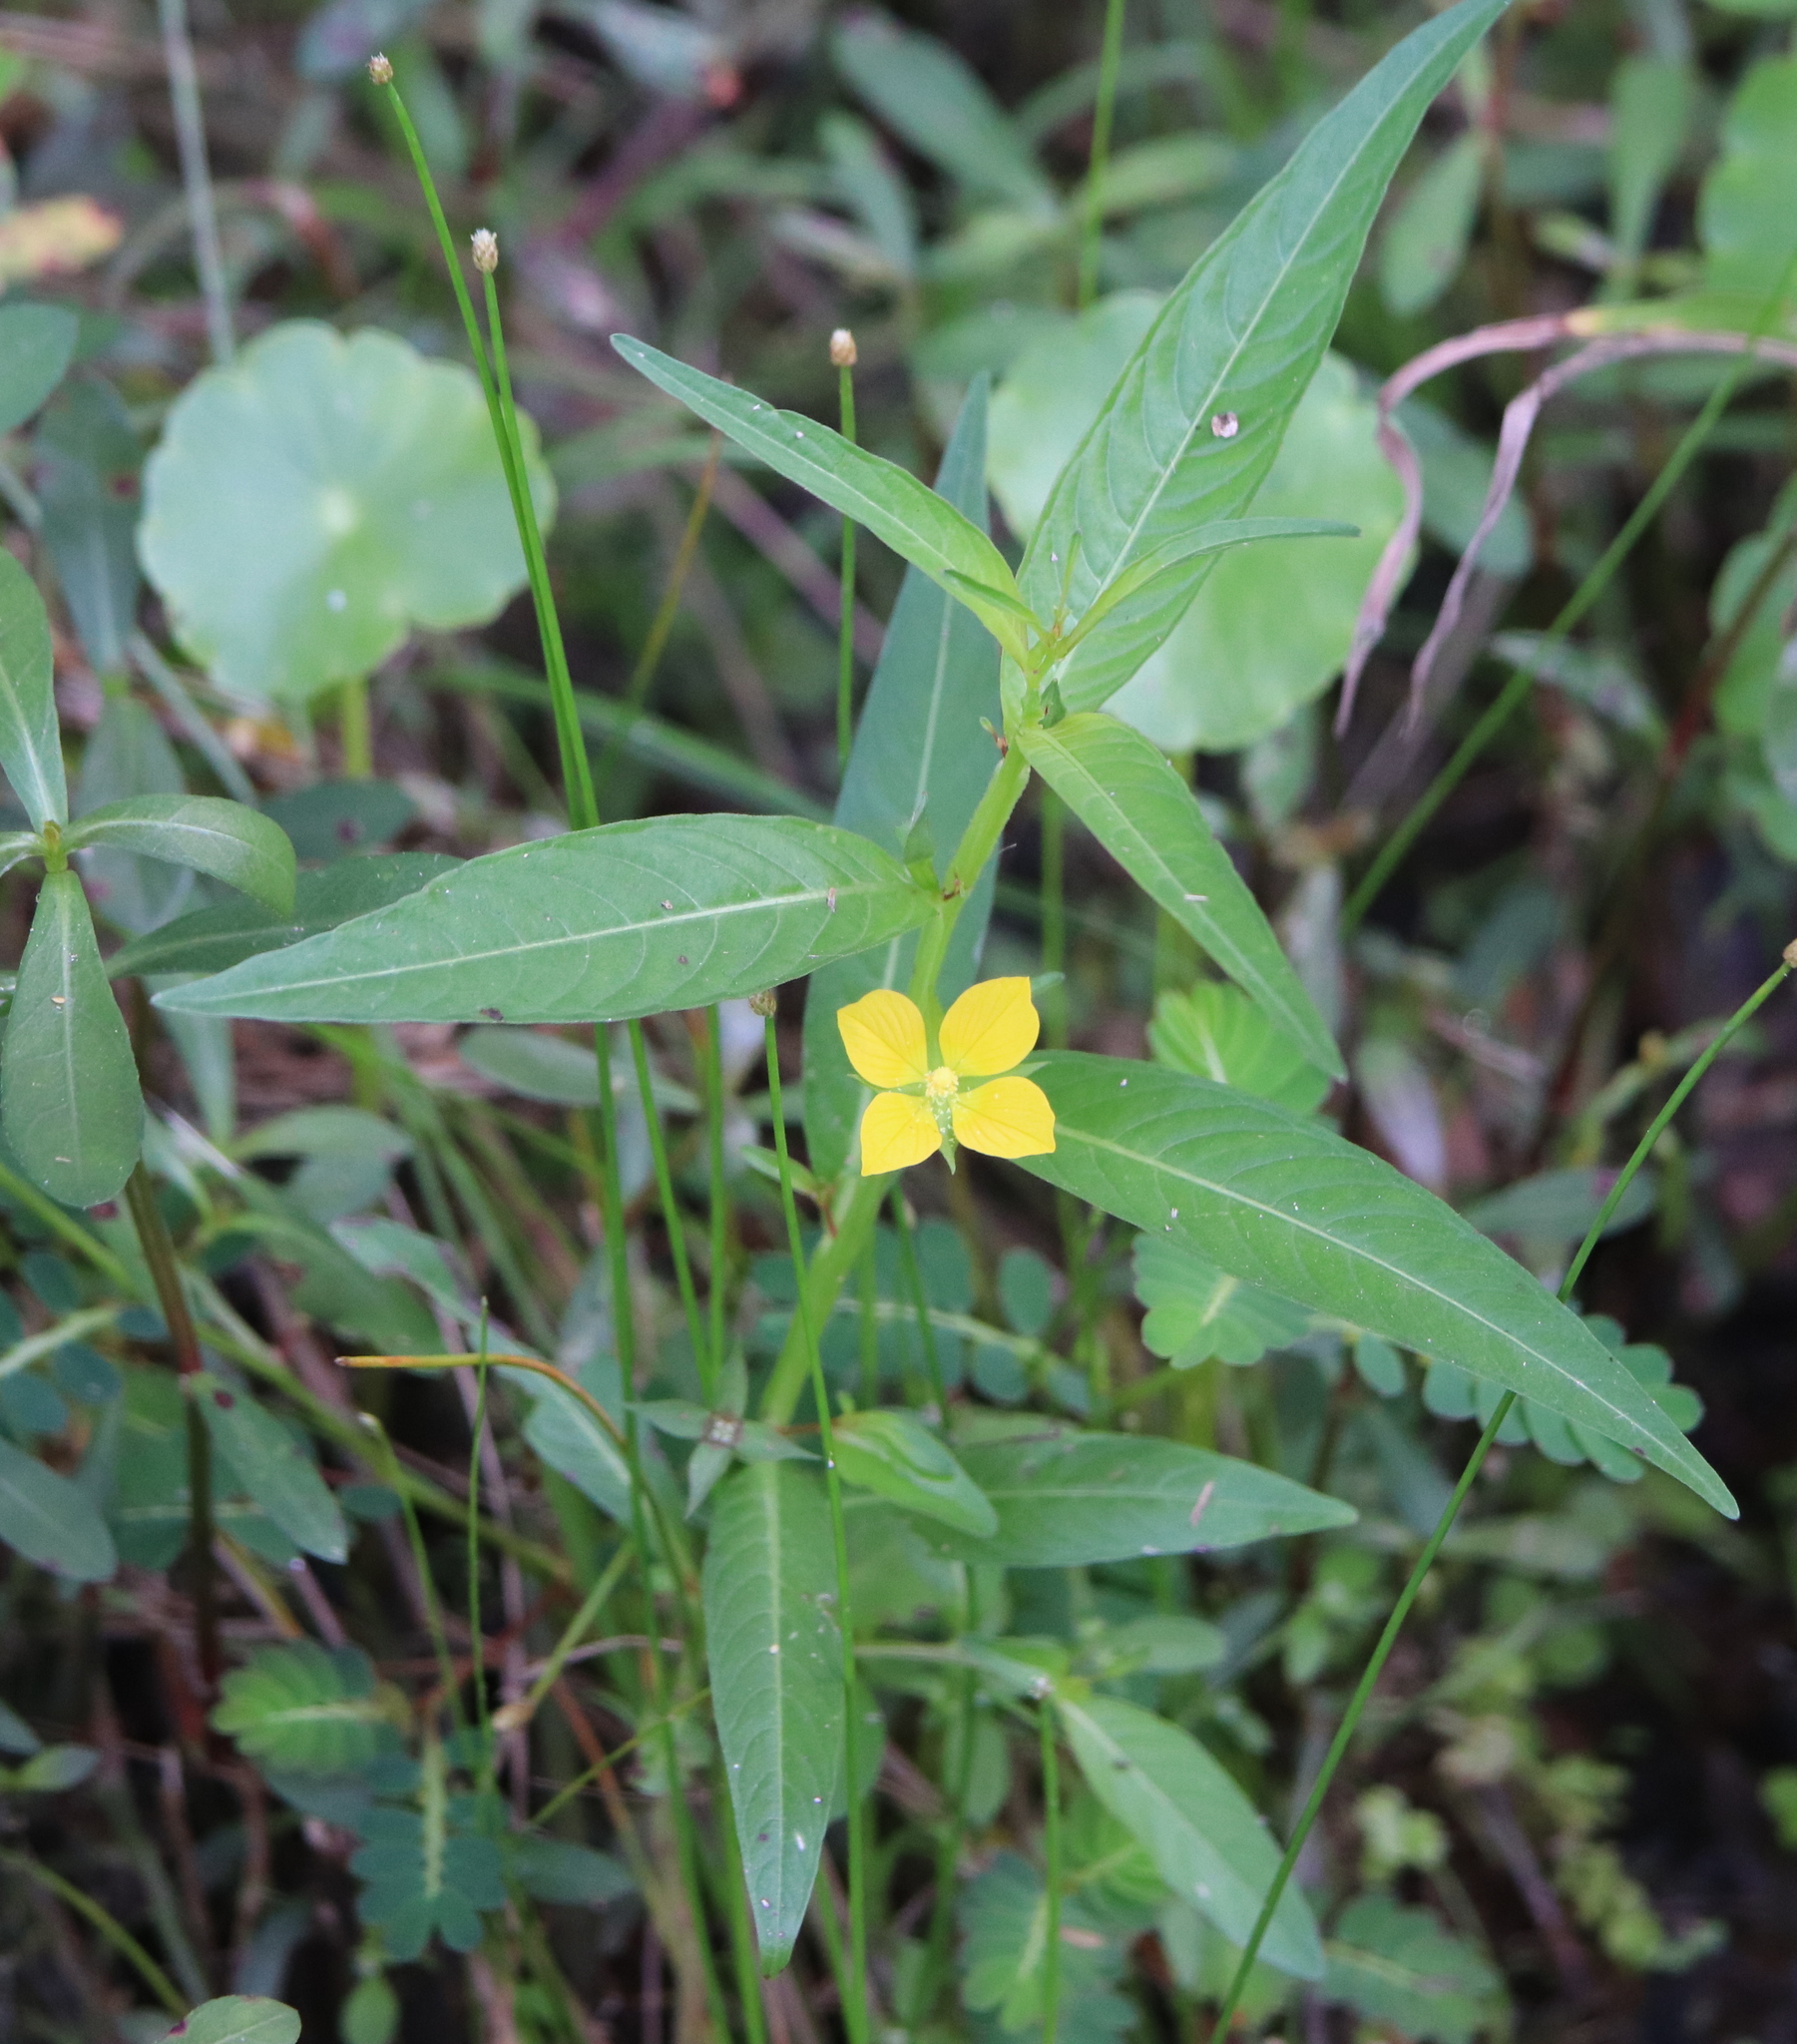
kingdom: Plantae
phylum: Tracheophyta
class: Magnoliopsida
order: Myrtales
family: Onagraceae
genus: Ludwigia
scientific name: Ludwigia decurrens
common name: Winged water-primrose
